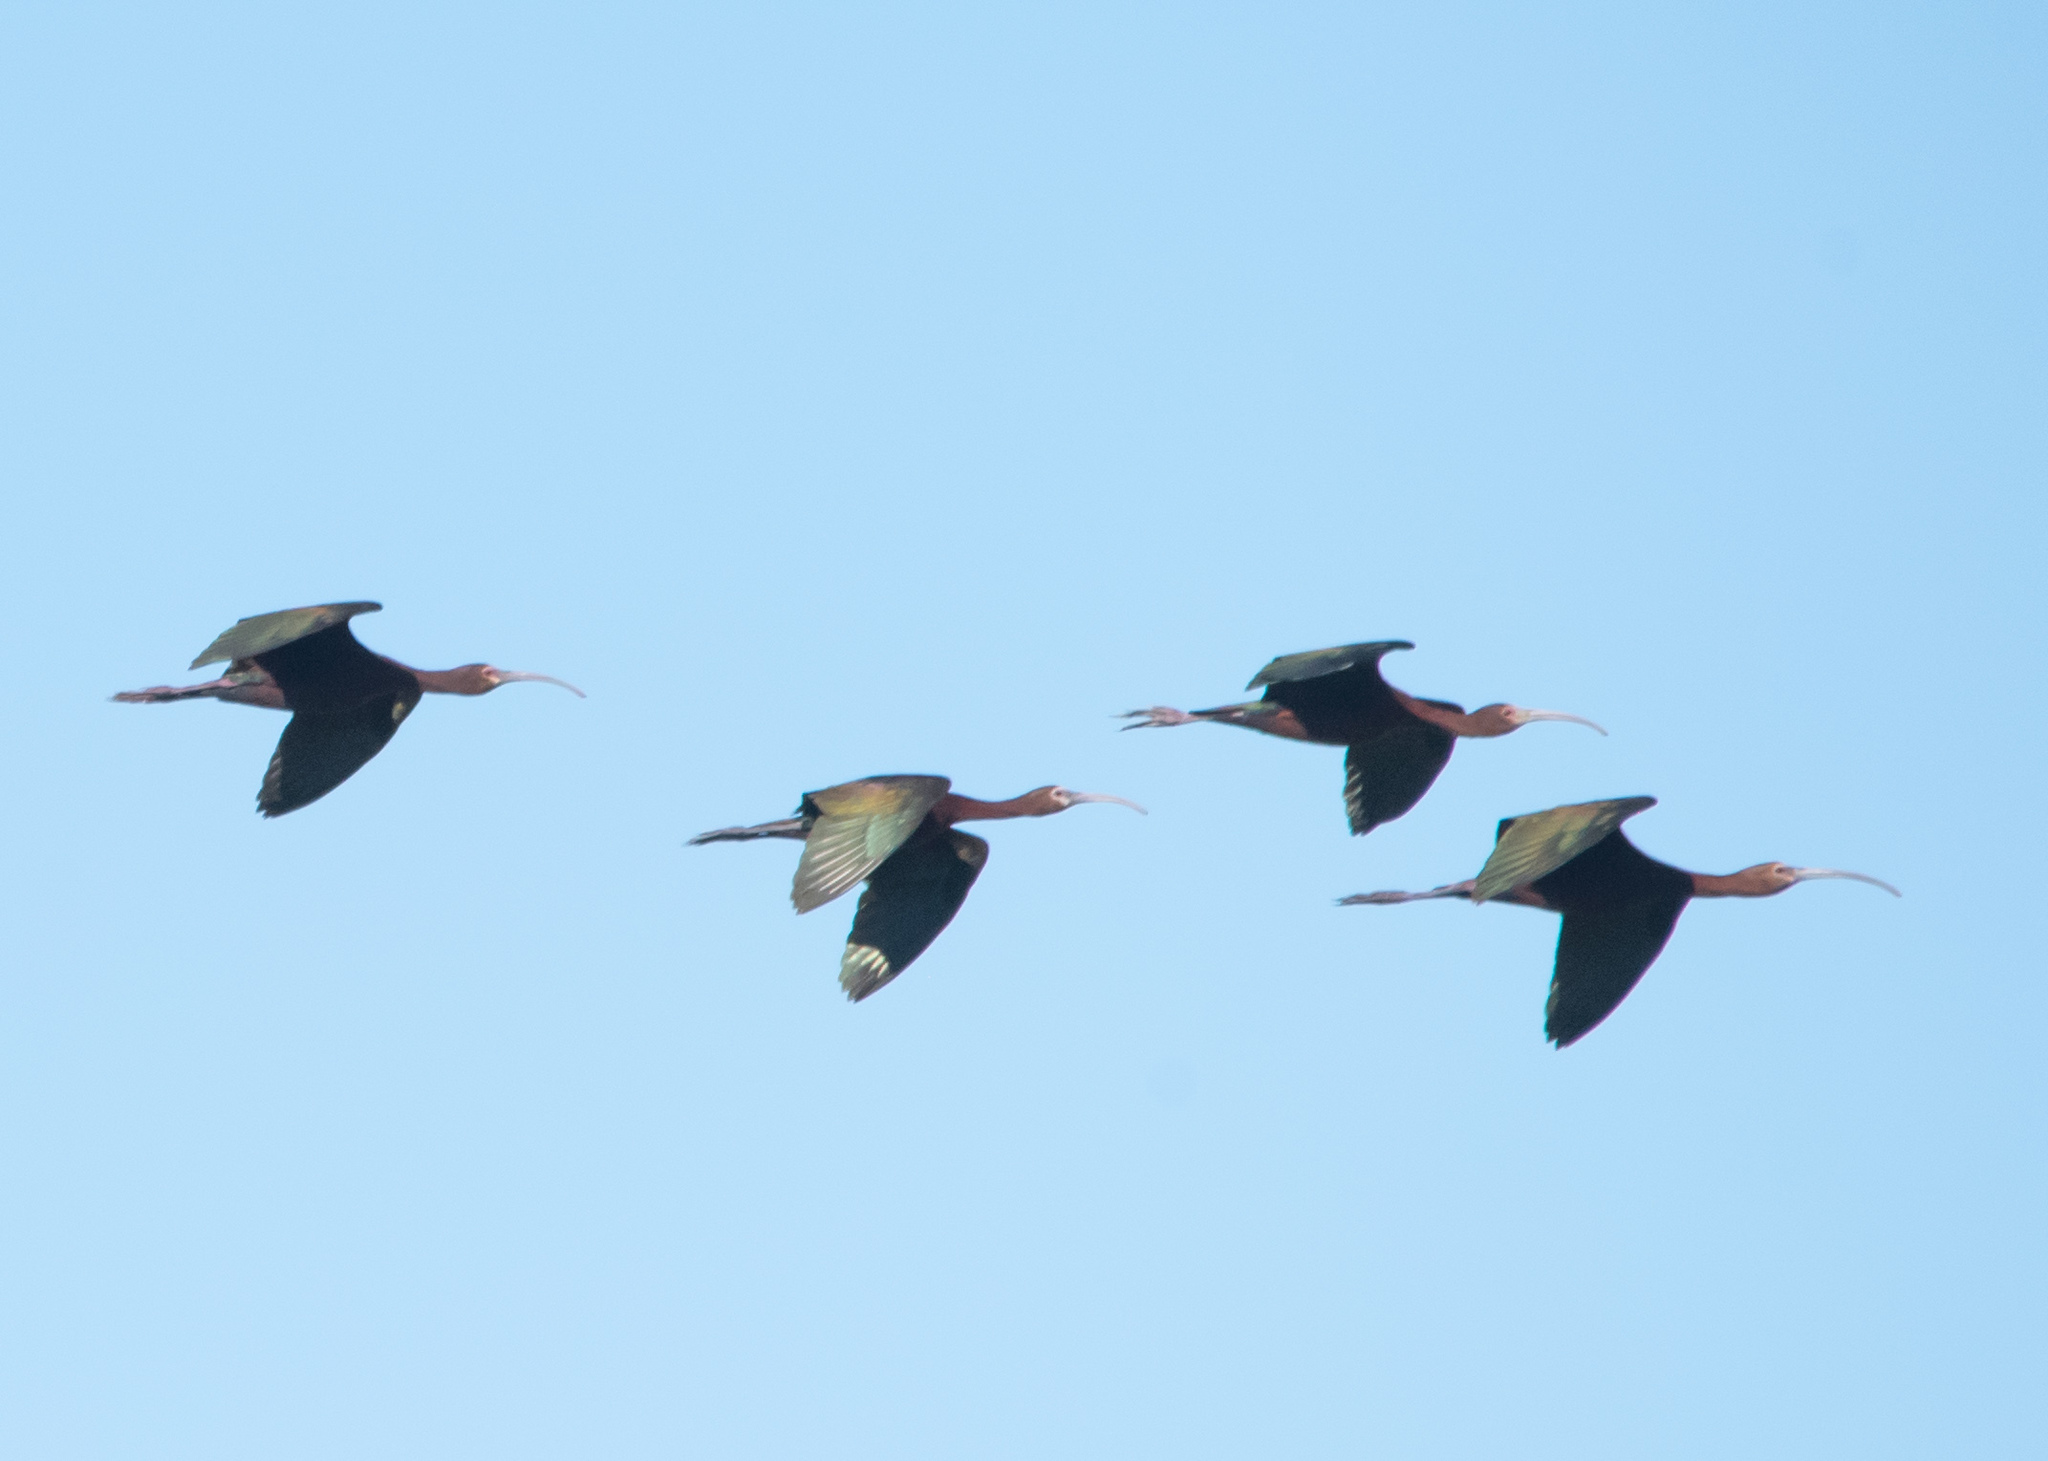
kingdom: Animalia
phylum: Chordata
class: Aves
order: Pelecaniformes
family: Threskiornithidae
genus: Plegadis
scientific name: Plegadis chihi
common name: White-faced ibis
